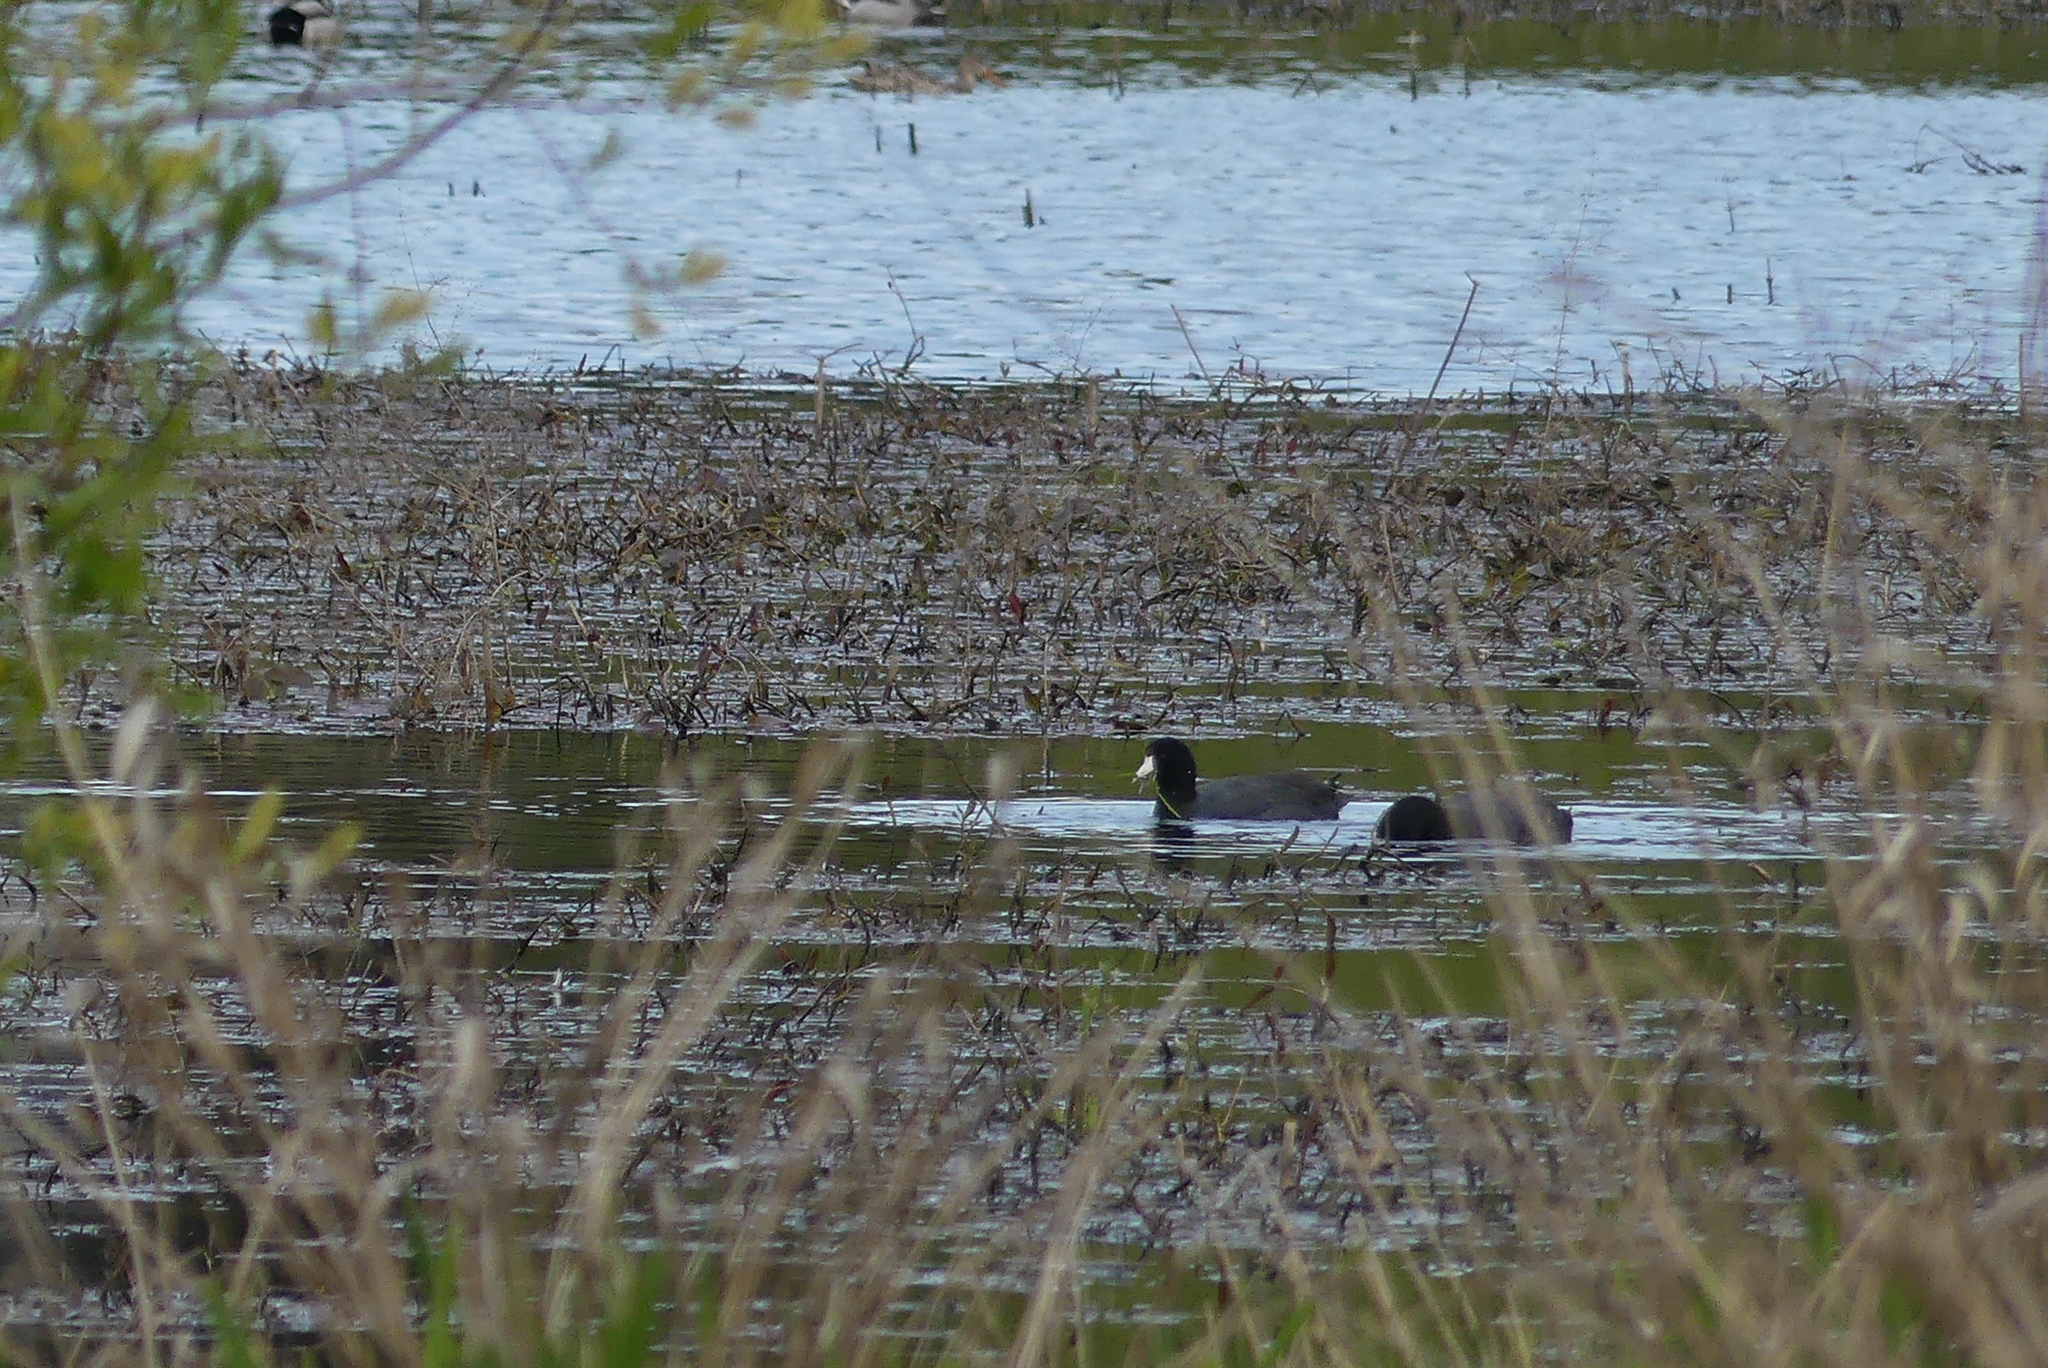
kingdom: Animalia
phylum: Chordata
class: Aves
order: Gruiformes
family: Rallidae
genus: Fulica
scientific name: Fulica americana
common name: American coot
